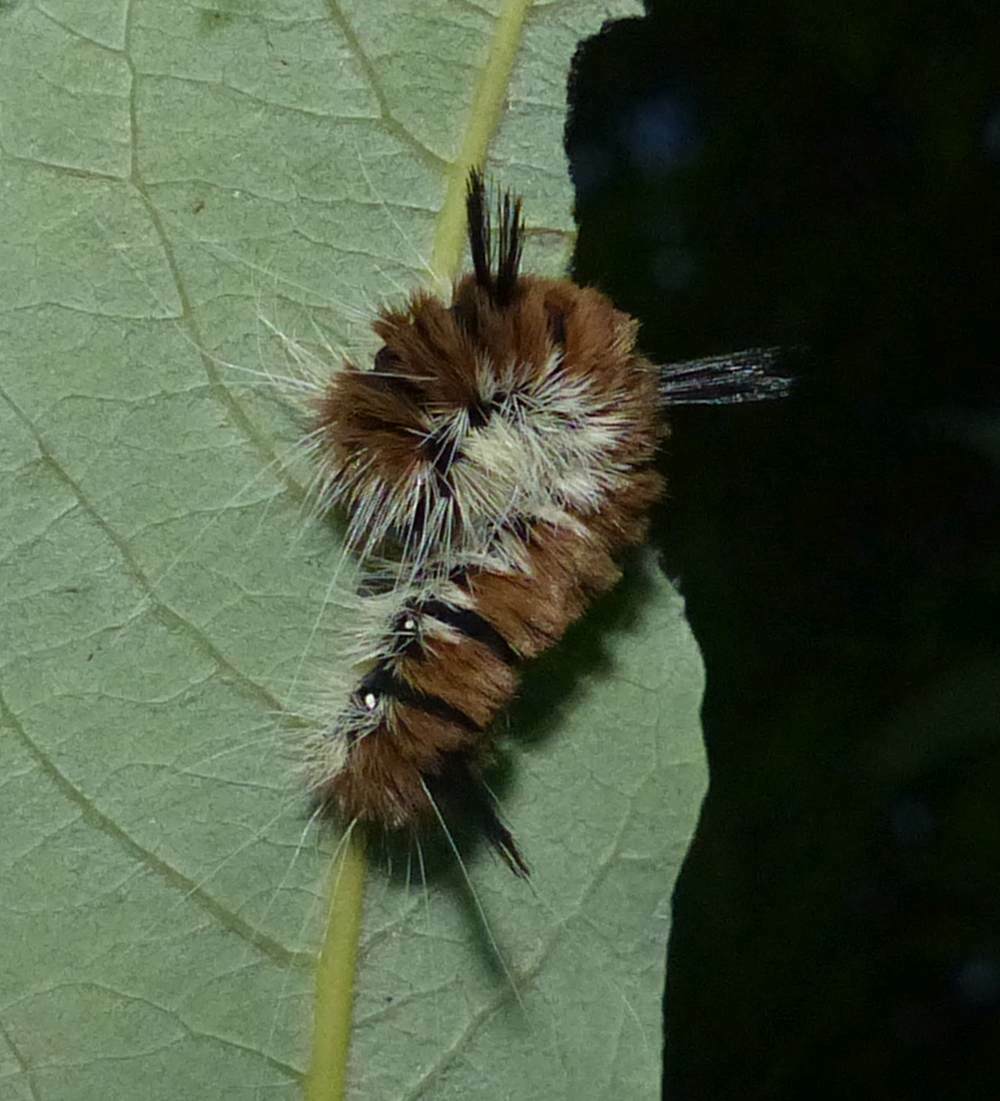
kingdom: Animalia
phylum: Arthropoda
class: Insecta
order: Lepidoptera
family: Noctuidae
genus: Acronicta
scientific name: Acronicta insita
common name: Large gray dagger
